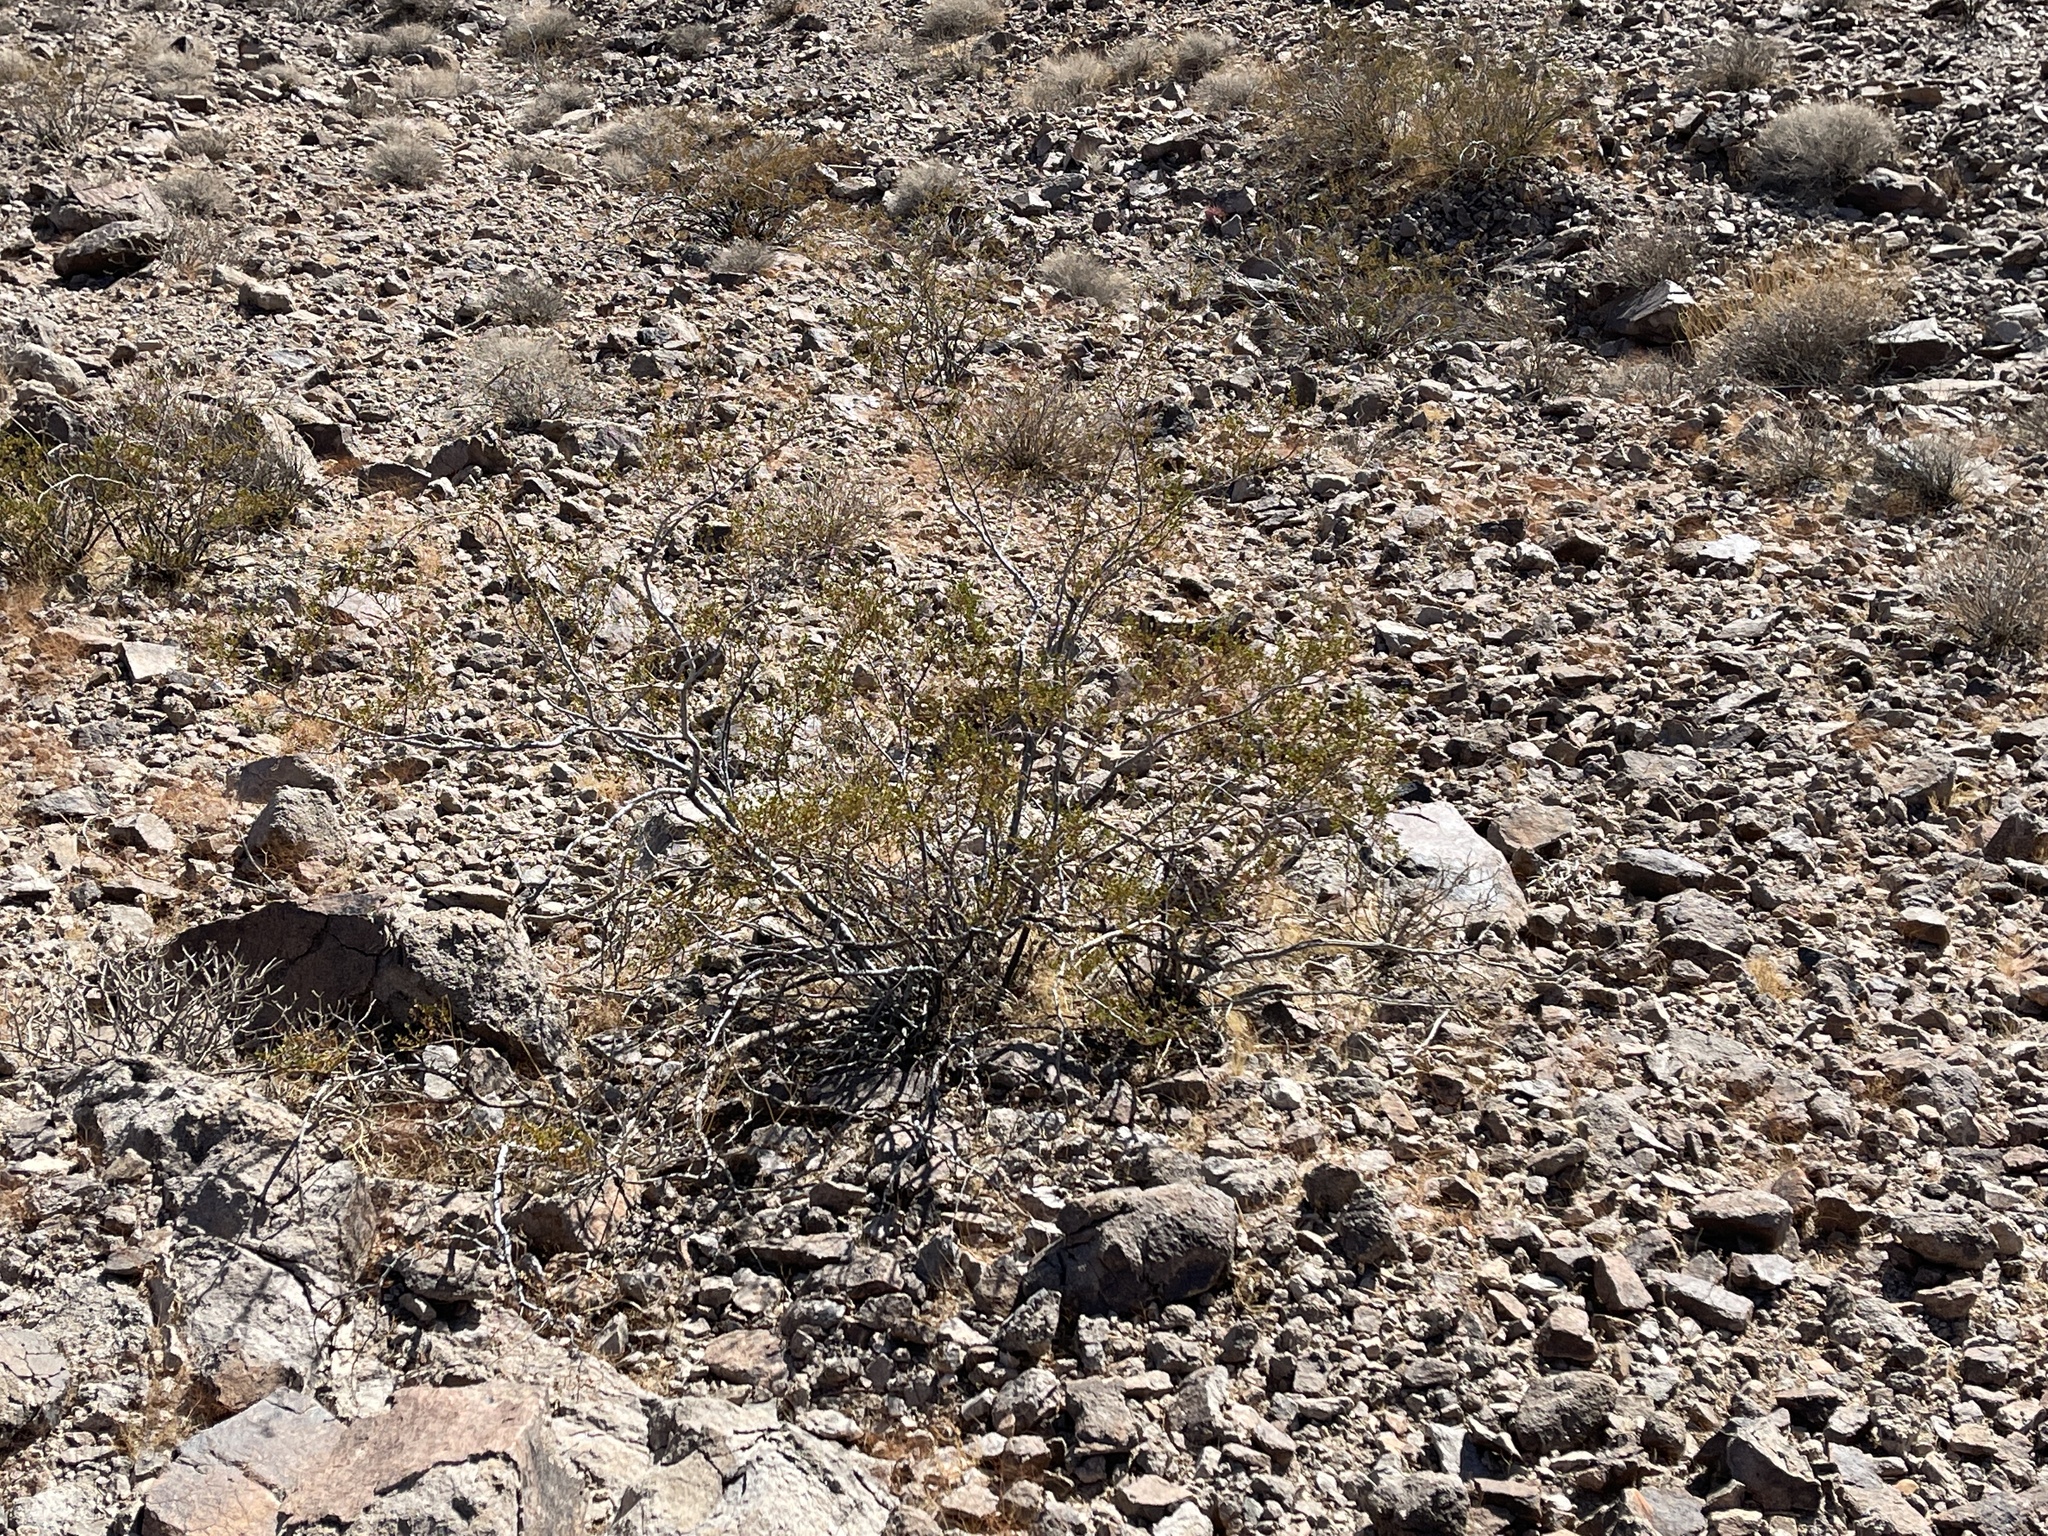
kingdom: Plantae
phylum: Tracheophyta
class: Magnoliopsida
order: Zygophyllales
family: Zygophyllaceae
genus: Larrea
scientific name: Larrea tridentata
